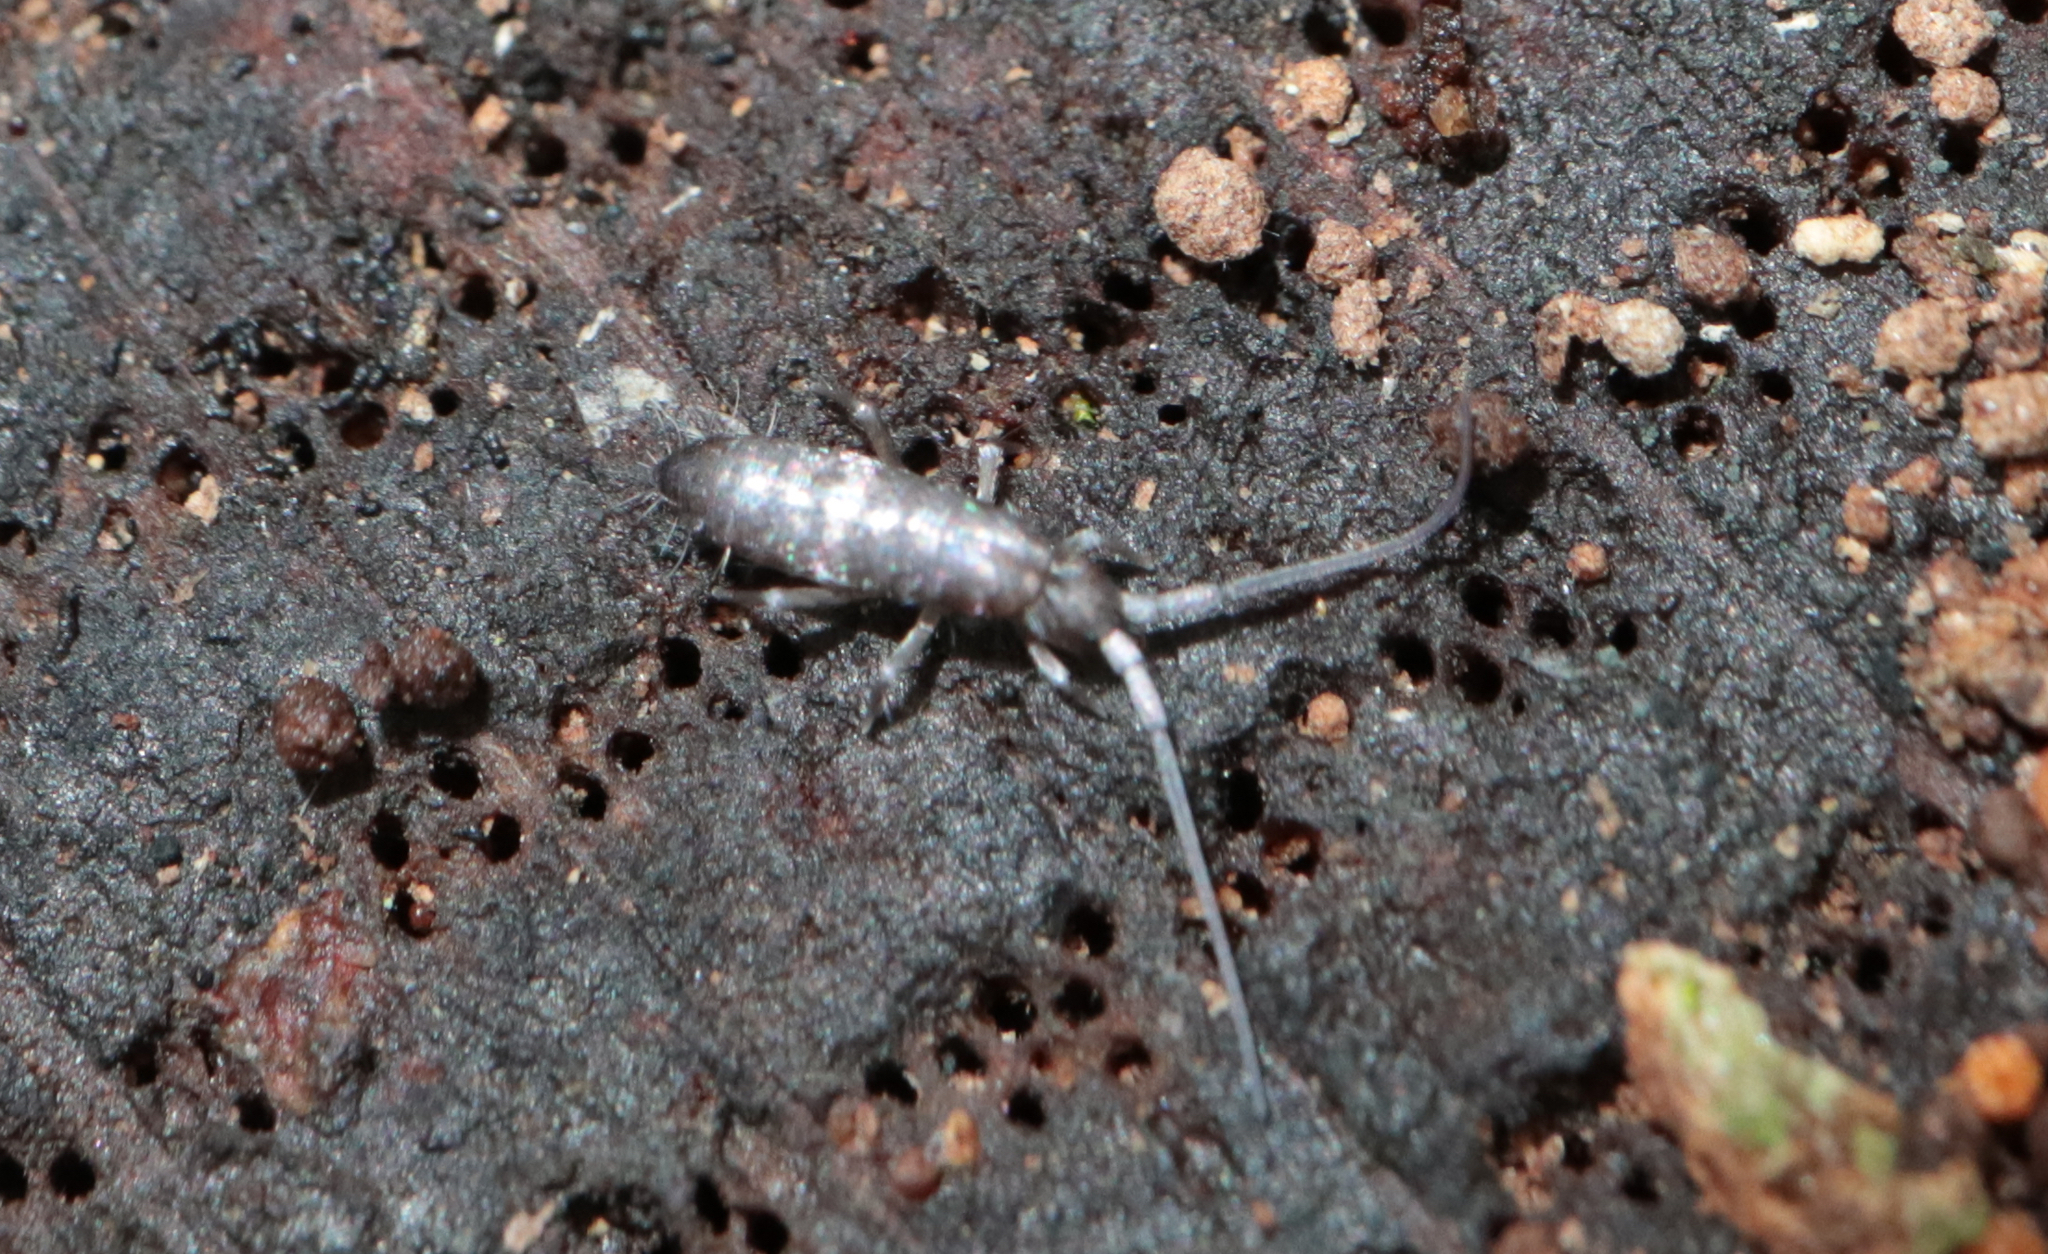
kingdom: Animalia
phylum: Arthropoda
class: Collembola
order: Entomobryomorpha
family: Tomoceridae
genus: Pogonognathellus
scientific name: Pogonognathellus
